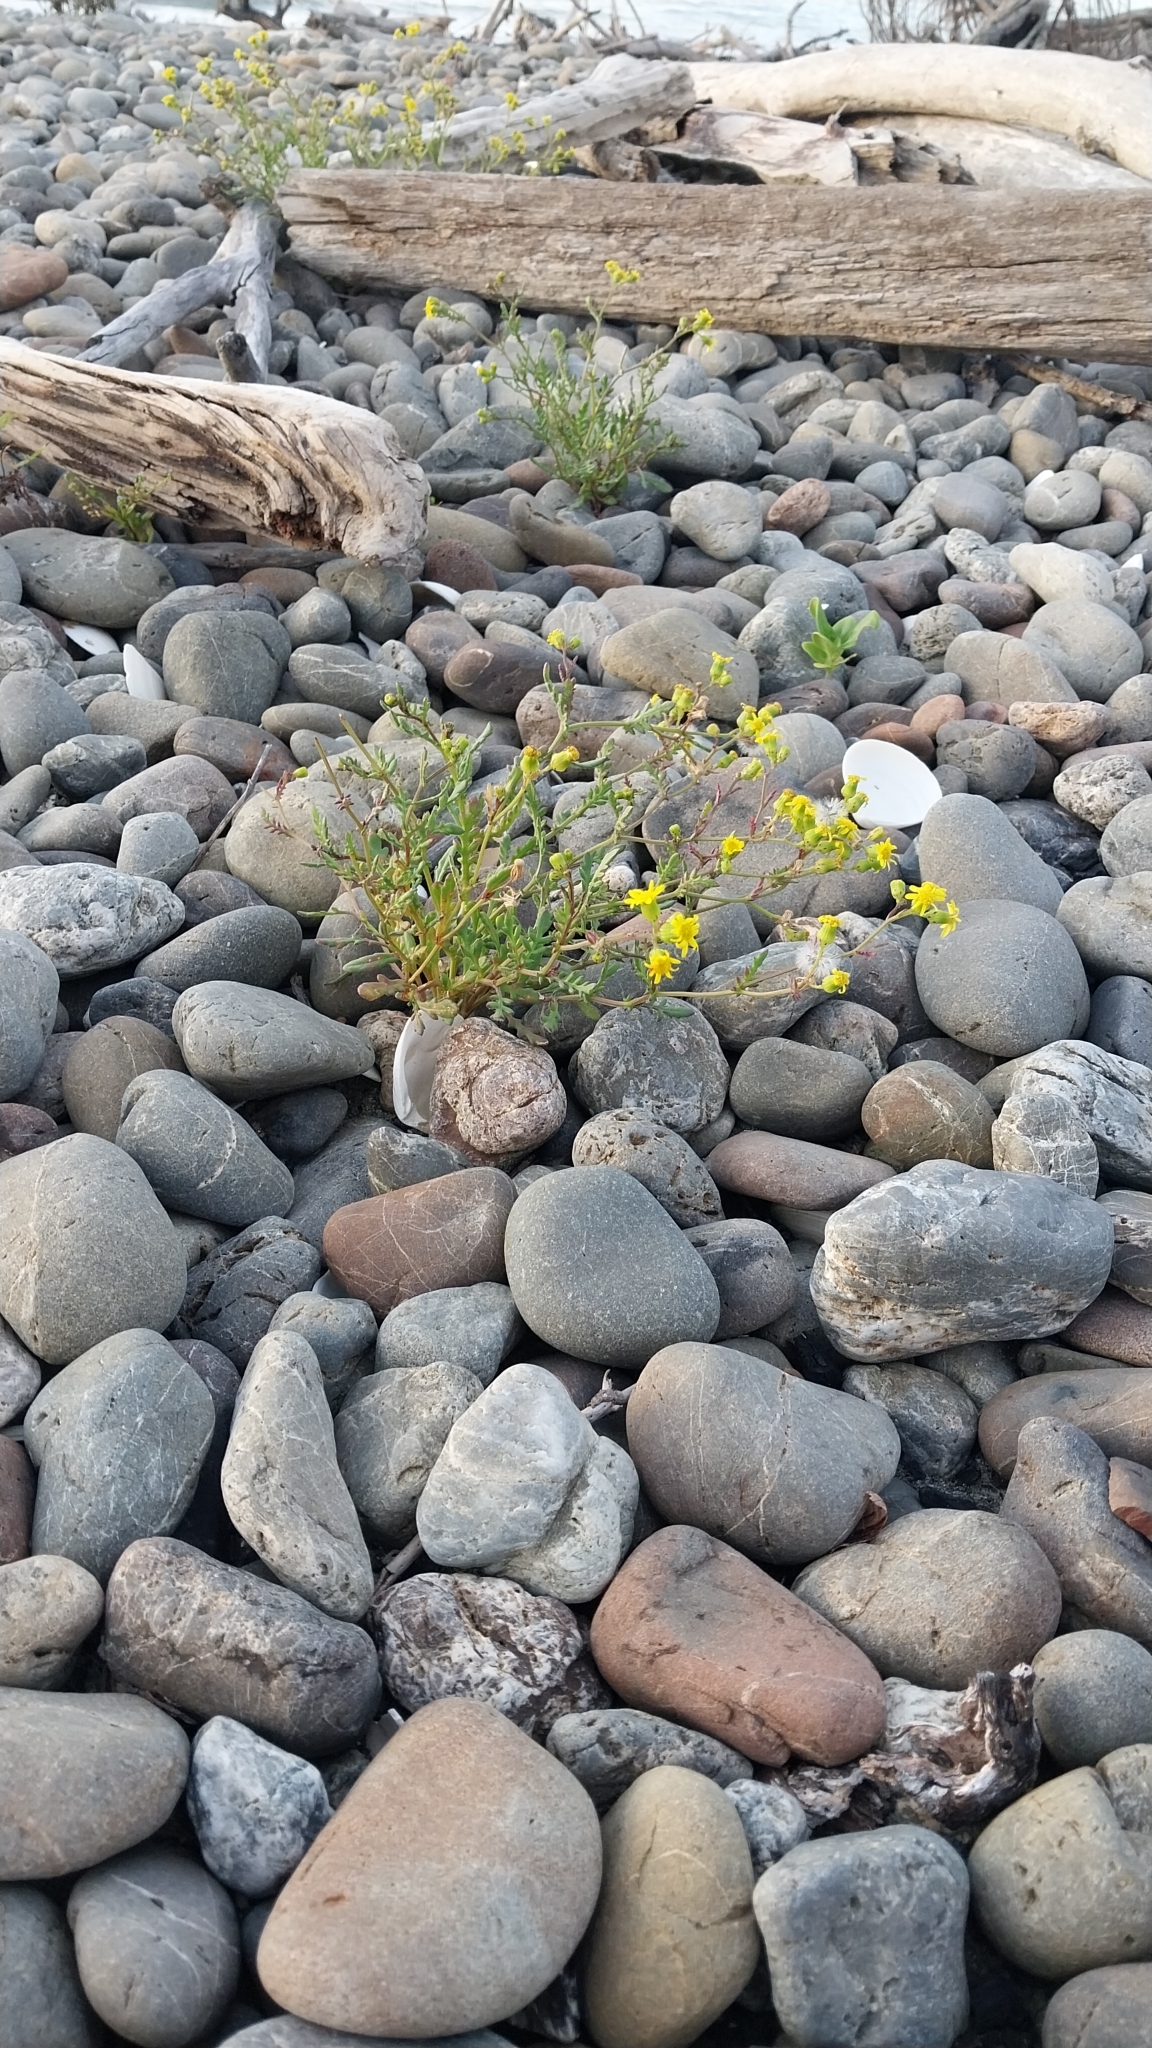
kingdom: Plantae
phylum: Tracheophyta
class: Magnoliopsida
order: Asterales
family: Asteraceae
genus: Senecio
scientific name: Senecio lautus
